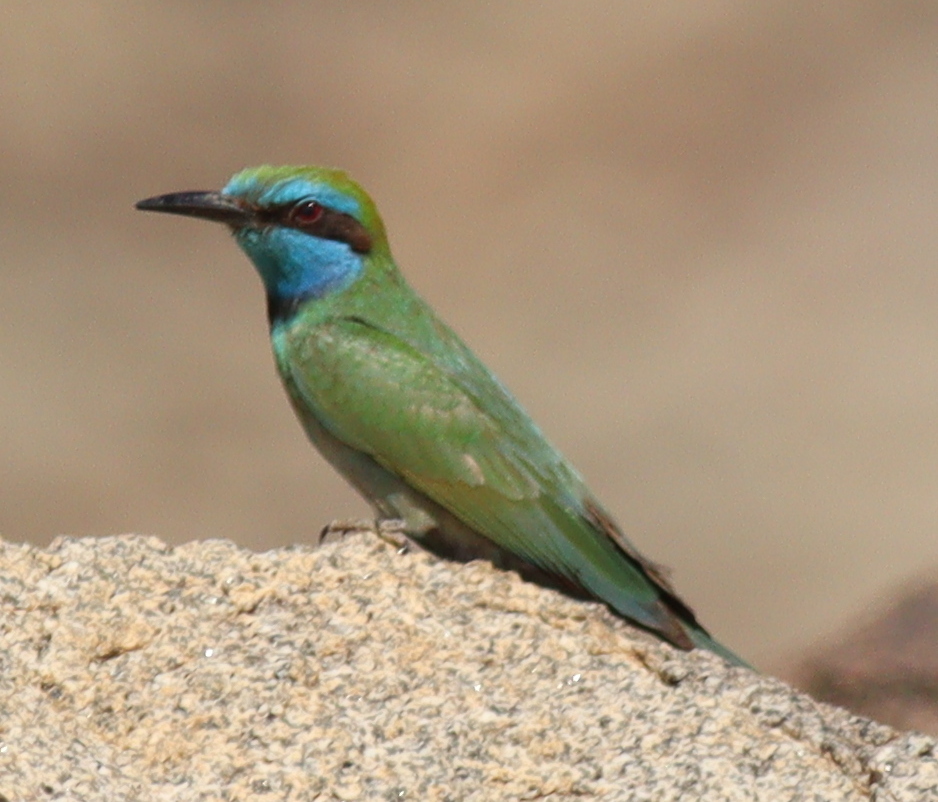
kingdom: Animalia
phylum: Chordata
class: Aves
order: Coraciiformes
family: Meropidae
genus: Merops
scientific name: Merops cyanophrys
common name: Arabian green bee-eater
